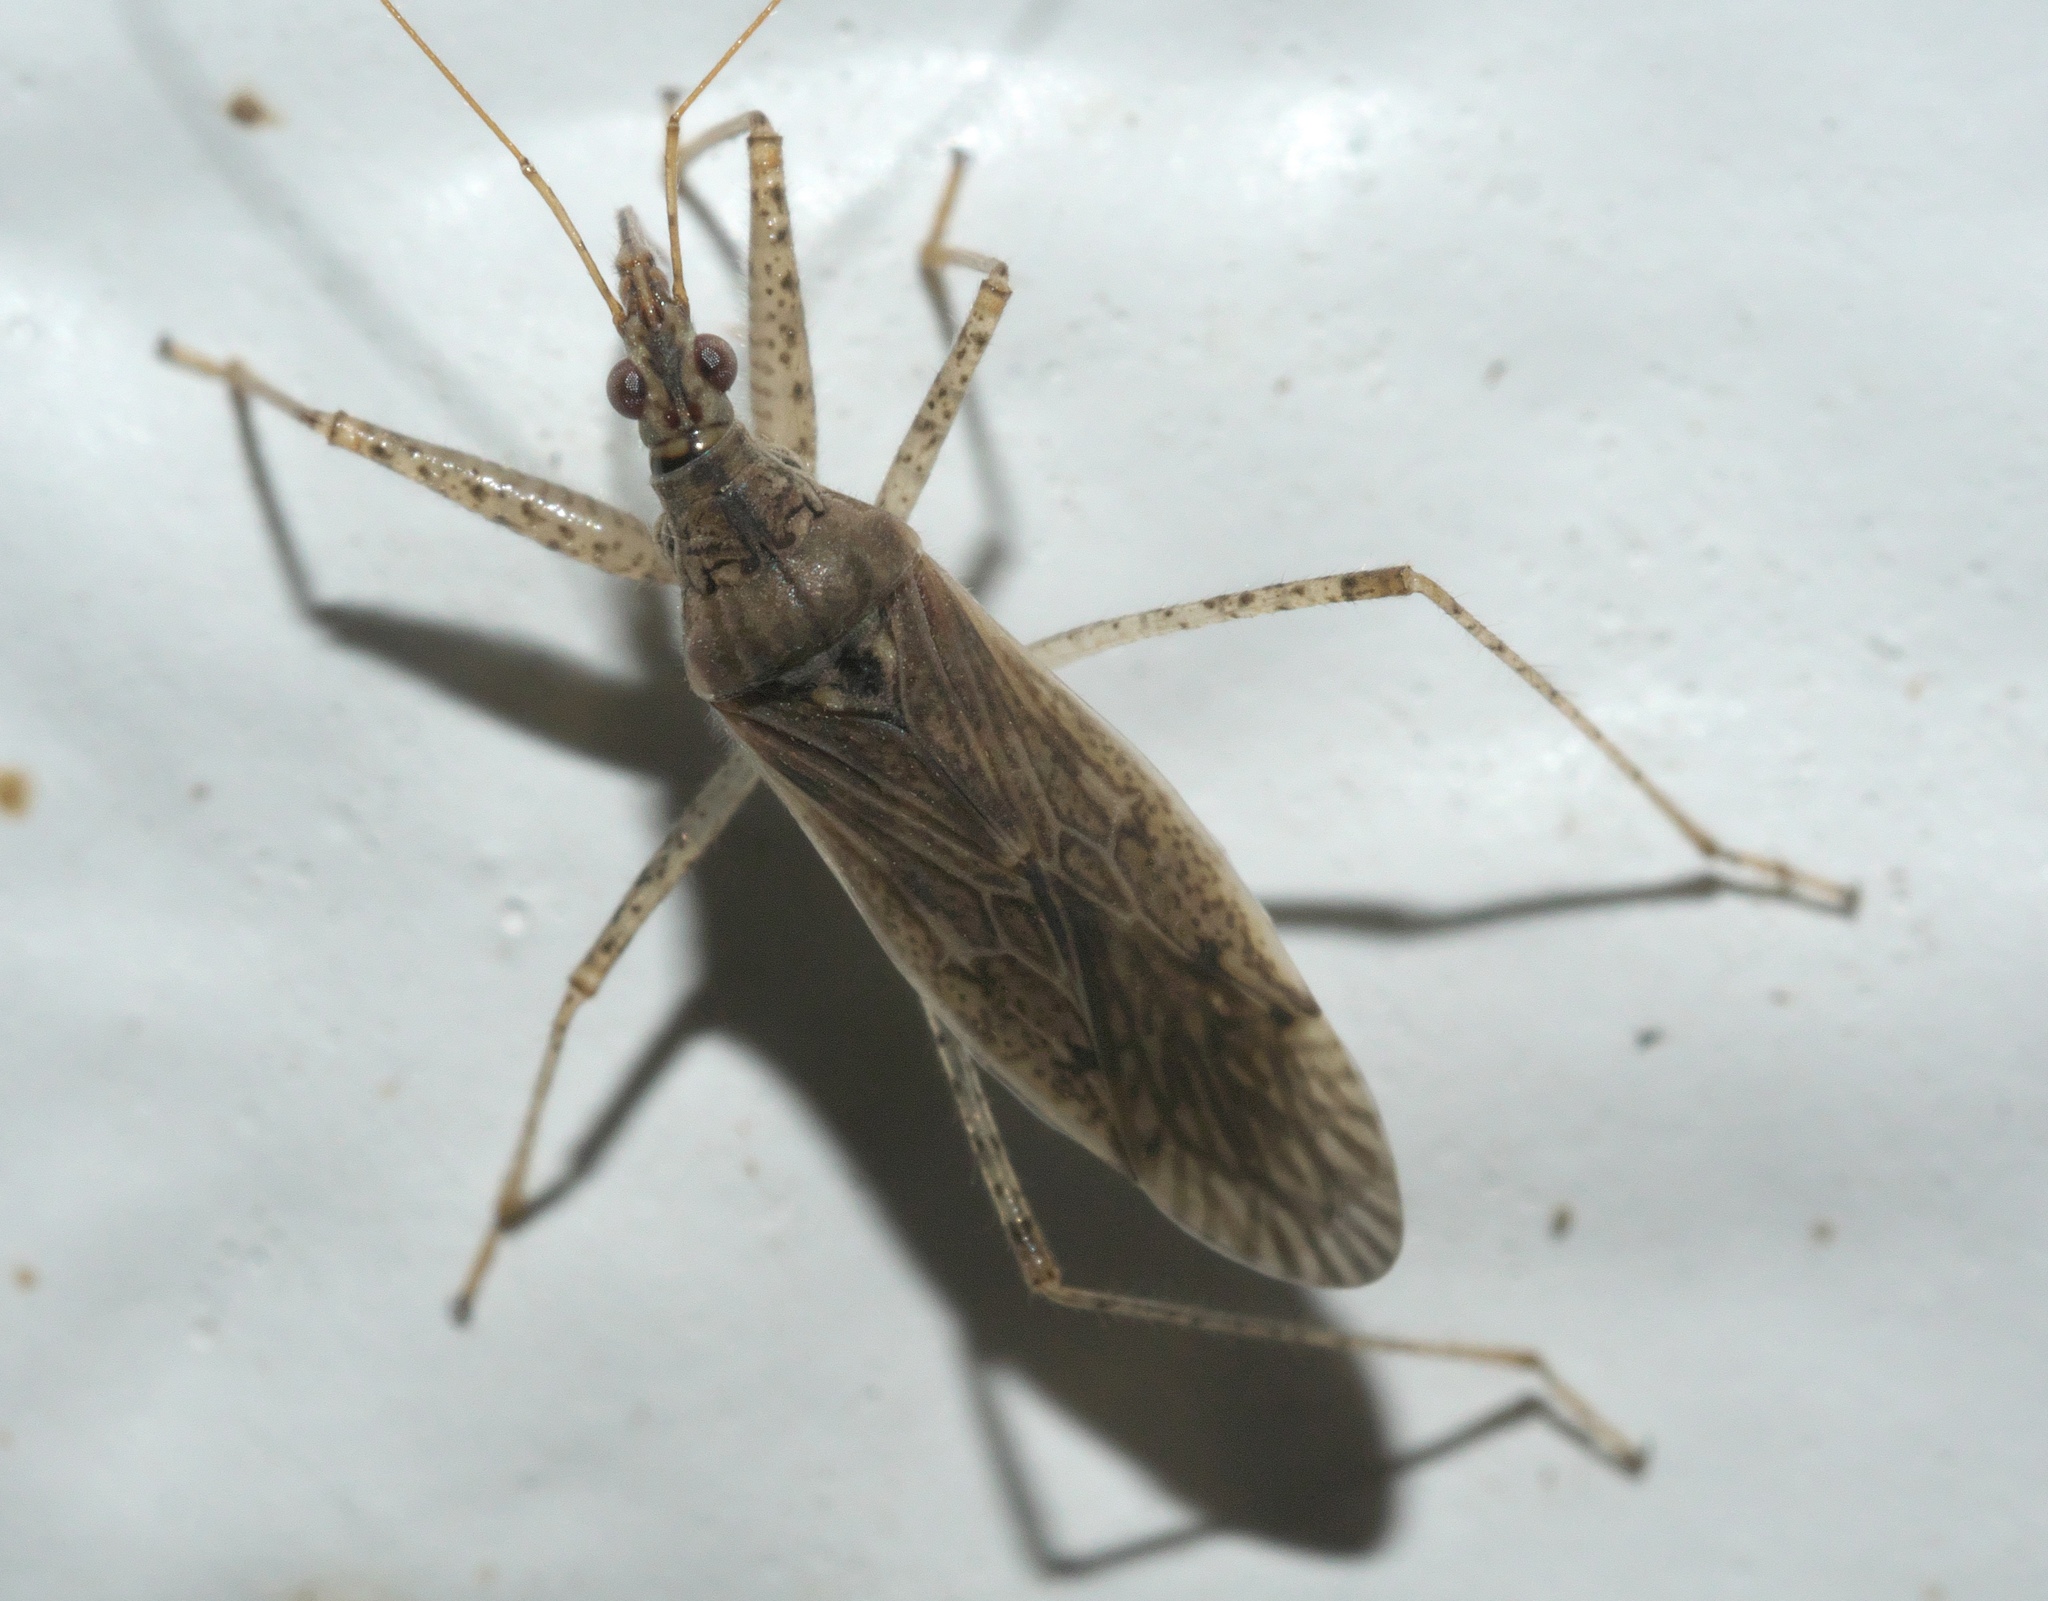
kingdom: Animalia
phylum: Arthropoda
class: Insecta
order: Hemiptera
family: Nabidae
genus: Nabis
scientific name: Nabis roseipennis
